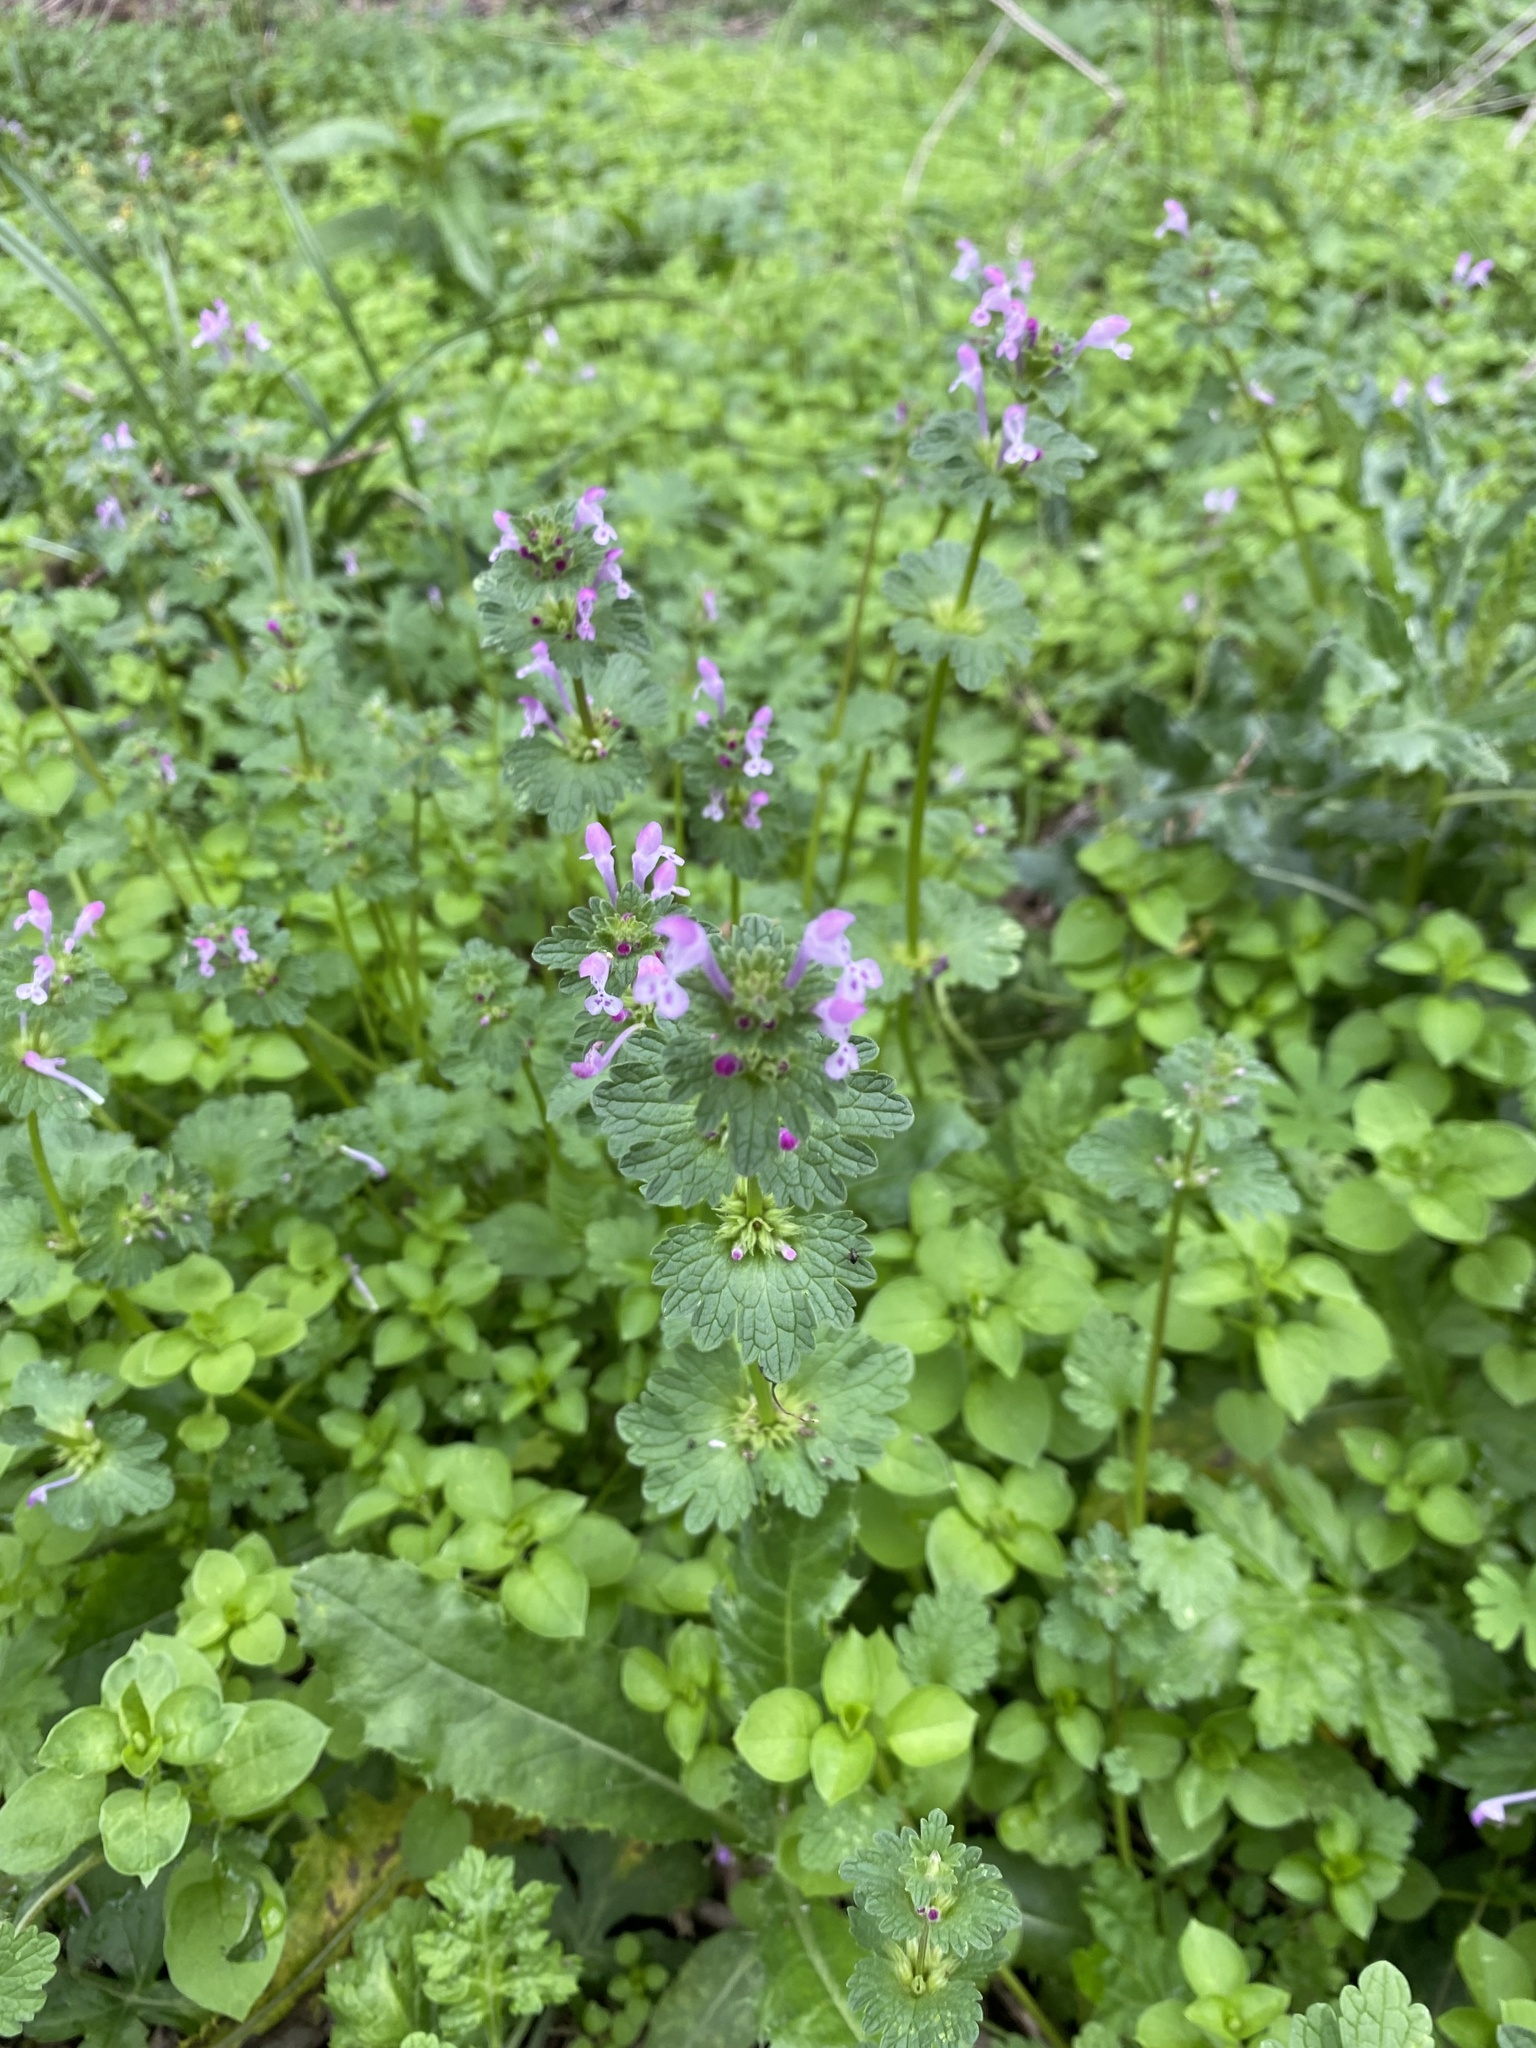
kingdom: Plantae
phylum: Tracheophyta
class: Magnoliopsida
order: Lamiales
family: Lamiaceae
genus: Lamium
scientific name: Lamium amplexicaule
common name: Henbit dead-nettle
